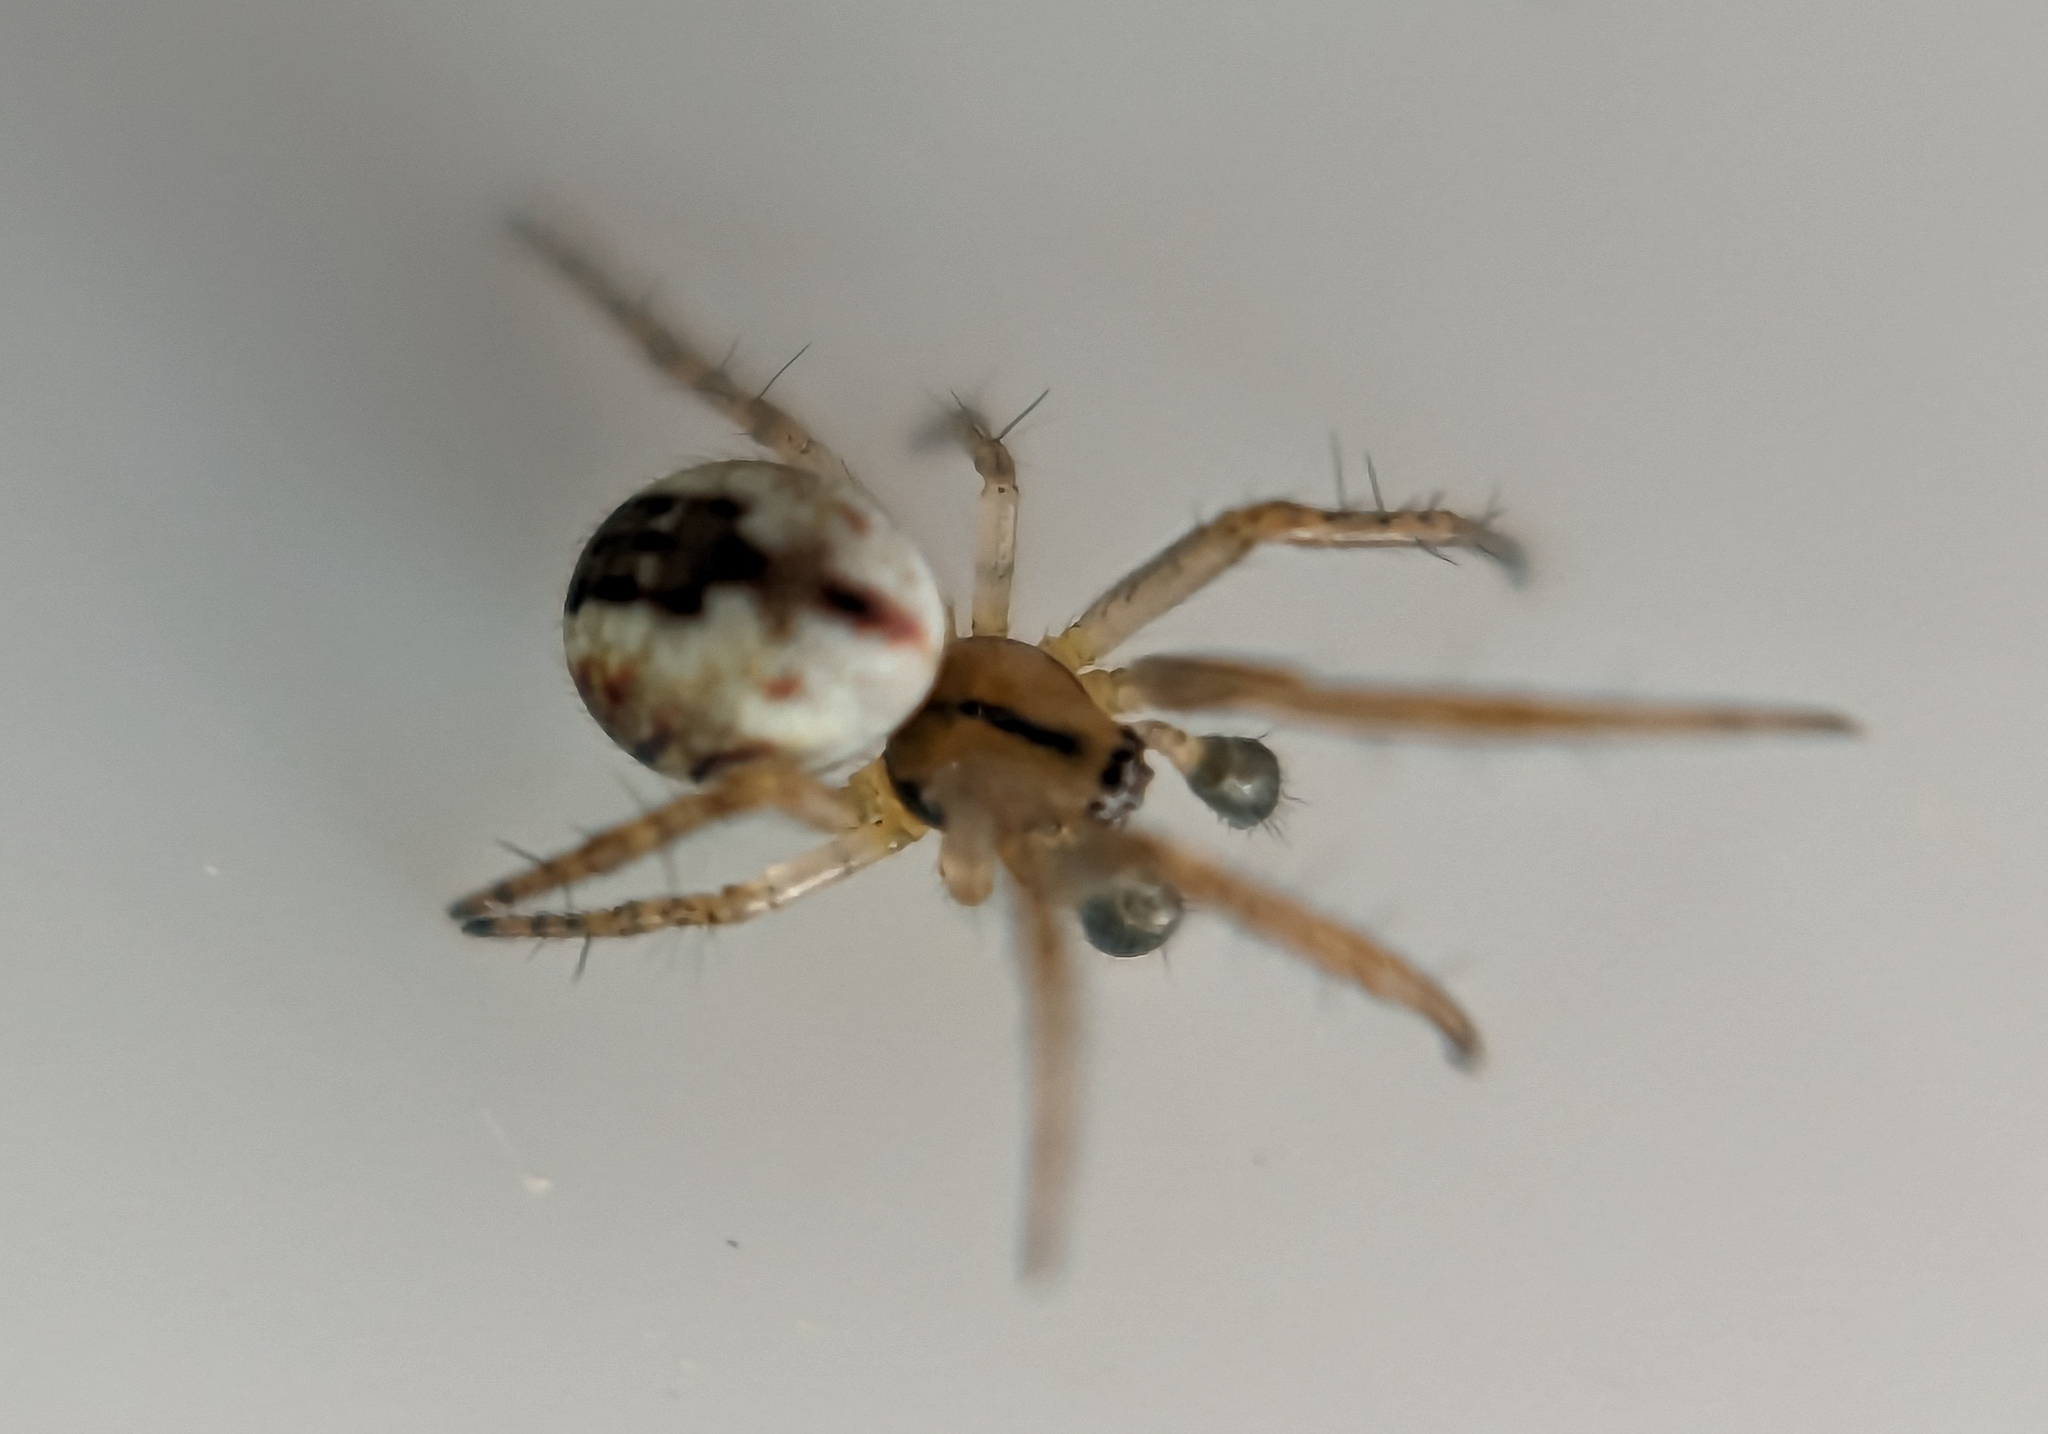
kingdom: Animalia
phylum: Arthropoda
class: Arachnida
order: Araneae
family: Araneidae
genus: Mangora
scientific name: Mangora acalypha
